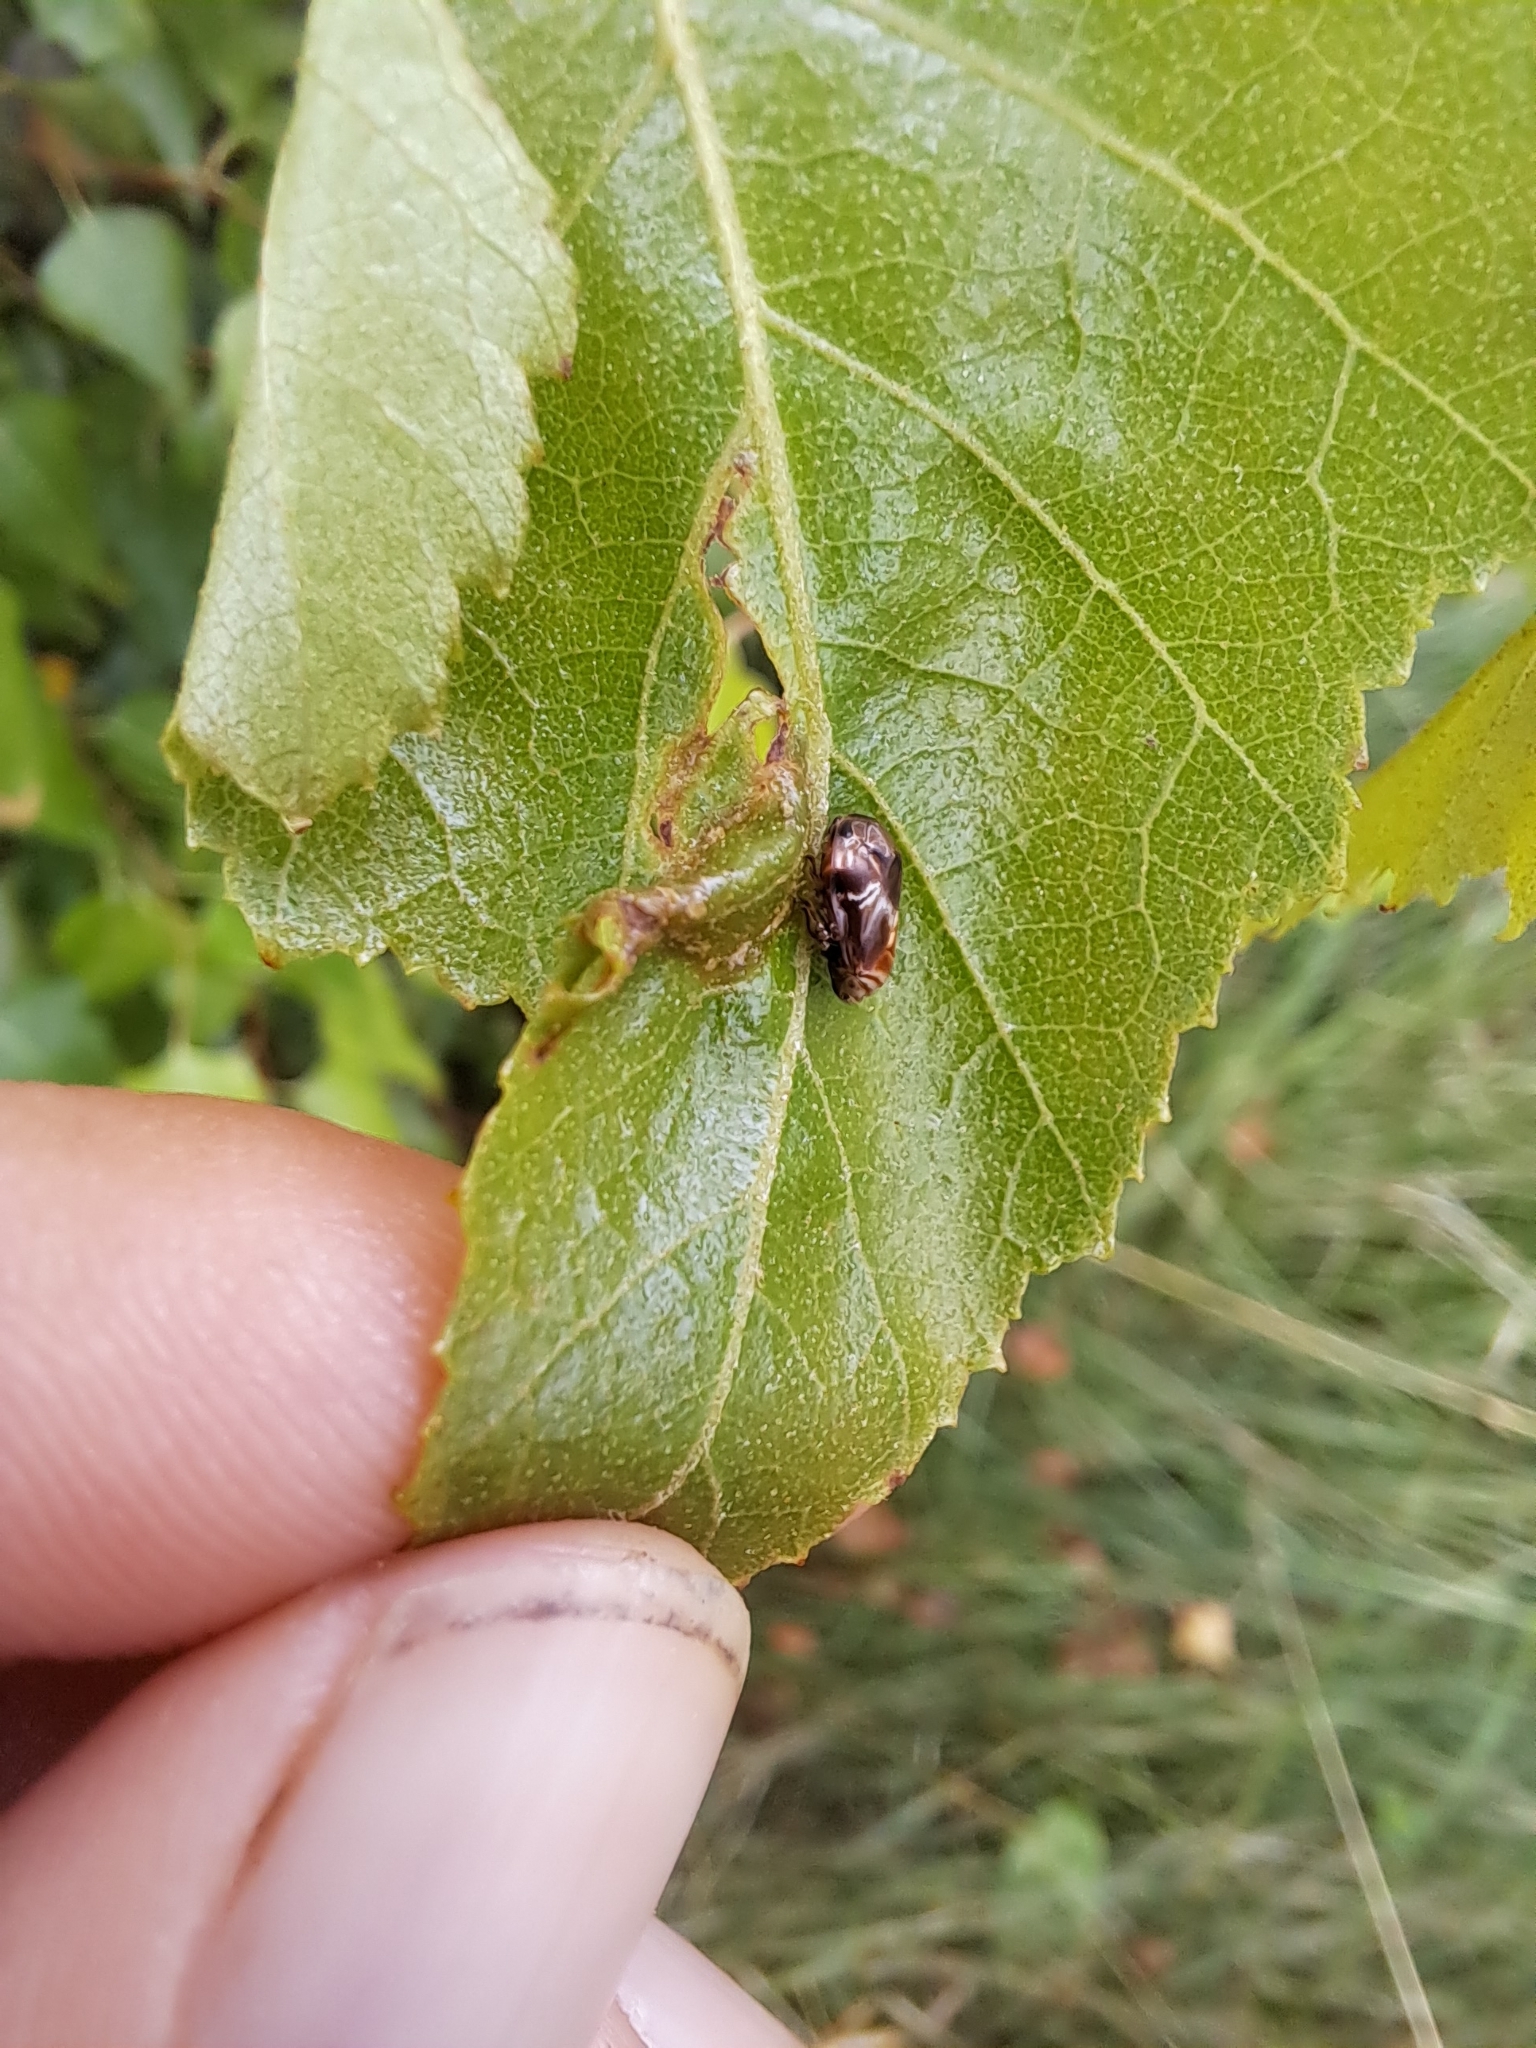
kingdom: Animalia
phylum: Arthropoda
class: Insecta
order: Hemiptera
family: Clastopteridae
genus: Clastoptera
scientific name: Clastoptera obtusa
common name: Alder spittlebug
